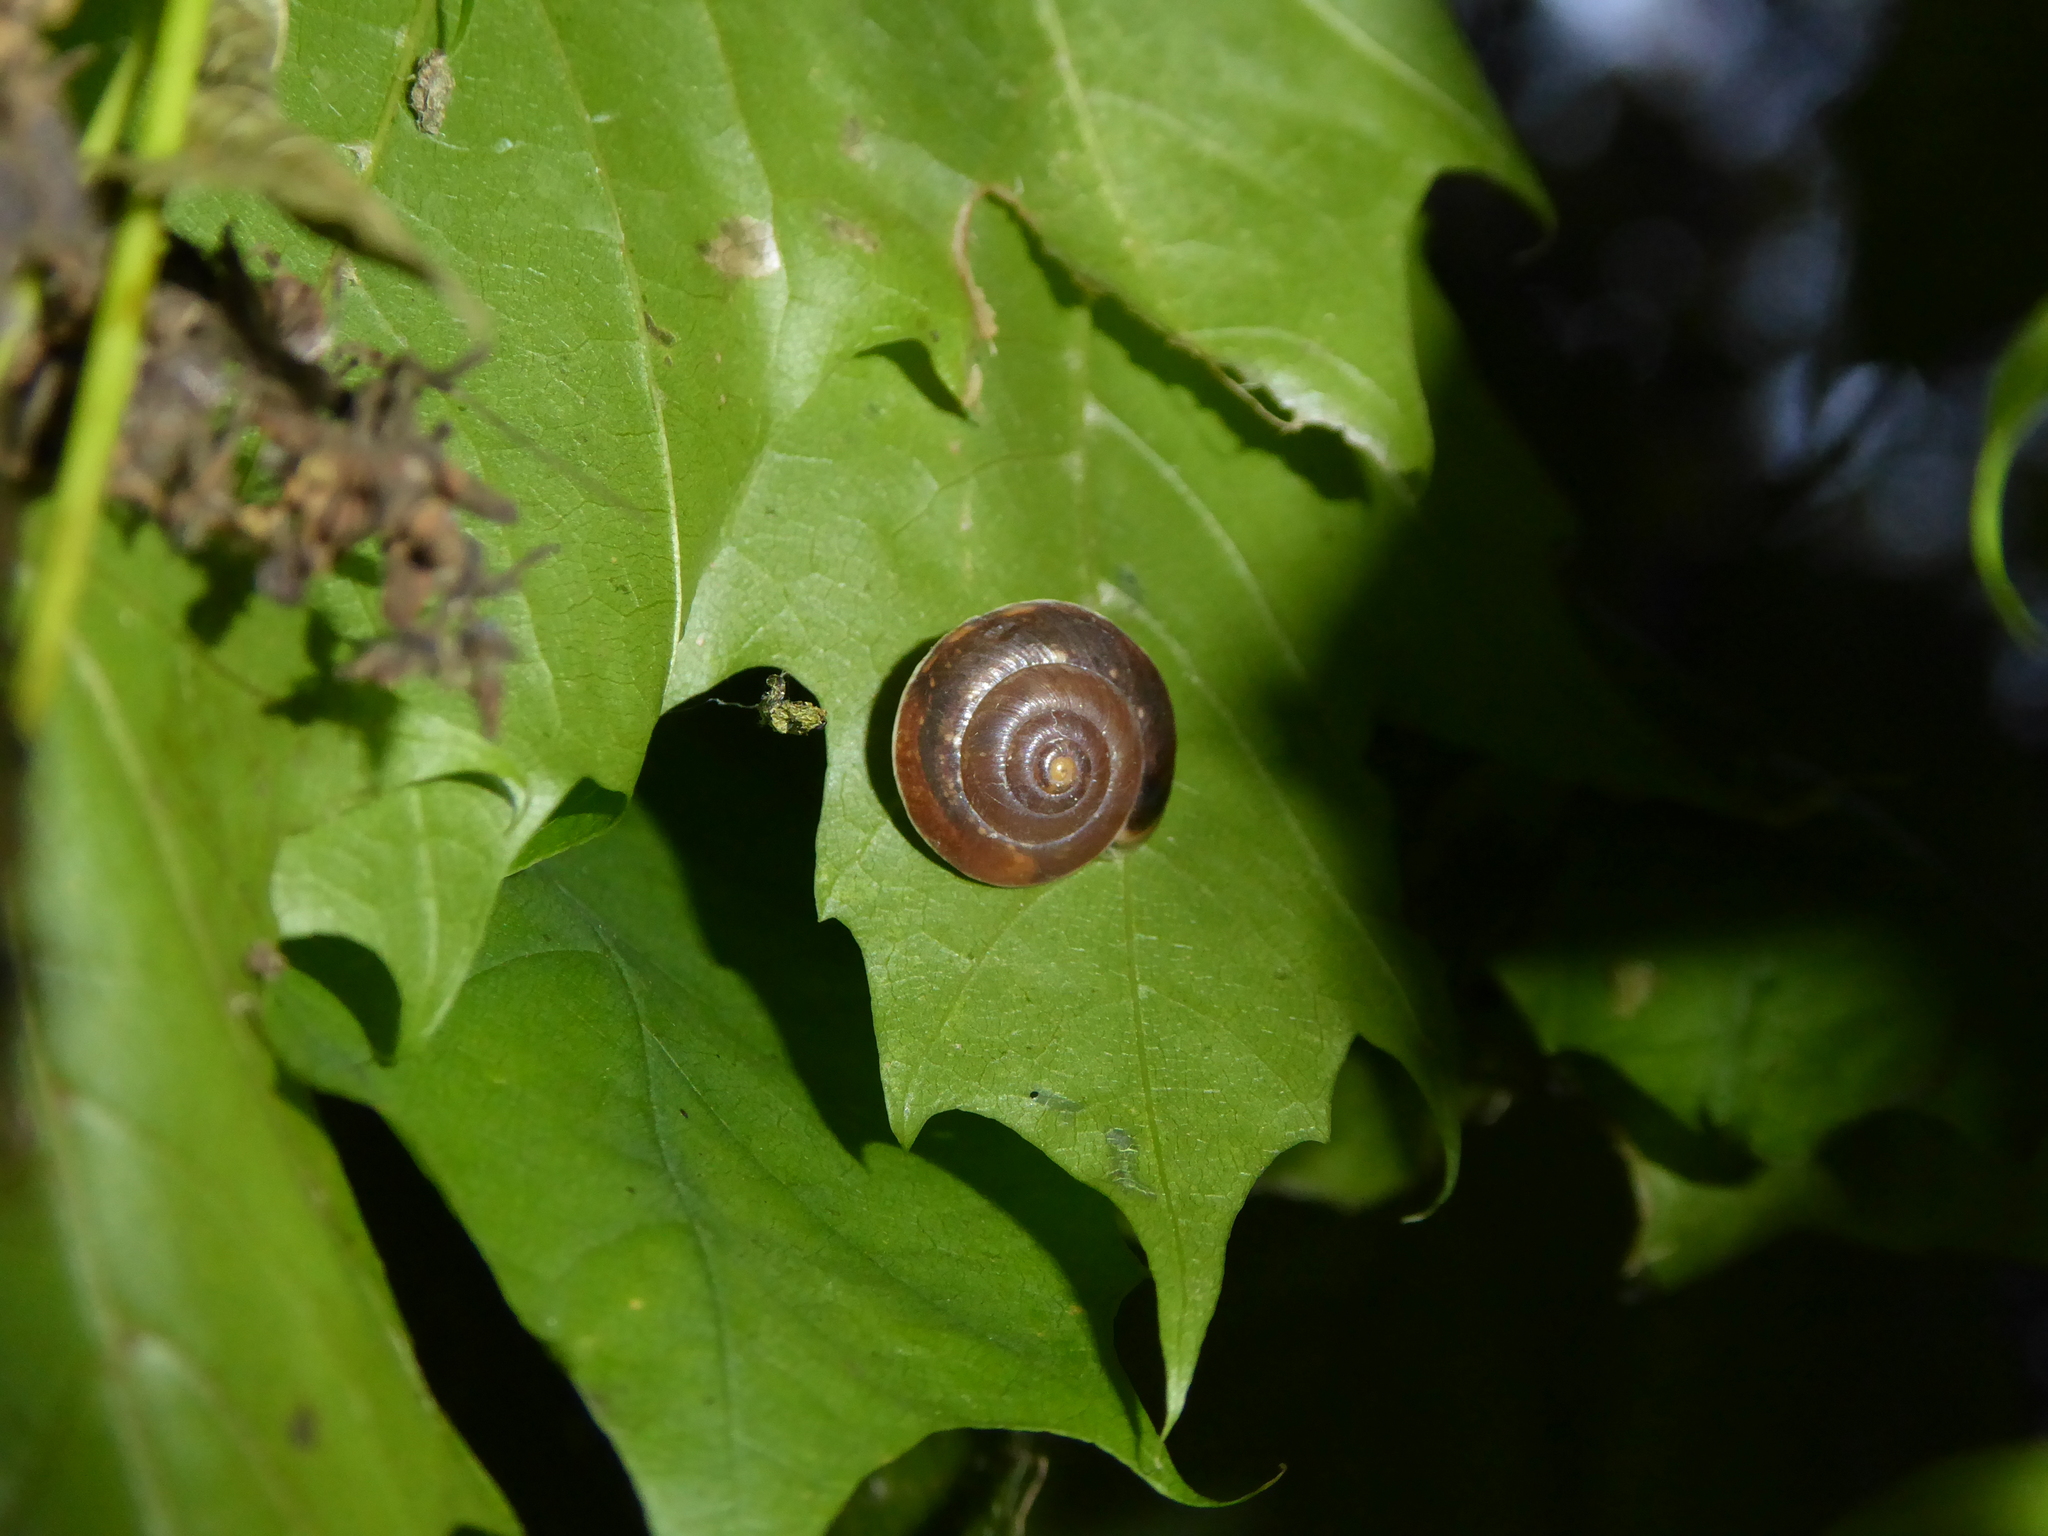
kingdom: Animalia
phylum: Mollusca
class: Gastropoda
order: Stylommatophora
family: Hygromiidae
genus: Hygromia
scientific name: Hygromia cinctella
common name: Girdled snail
